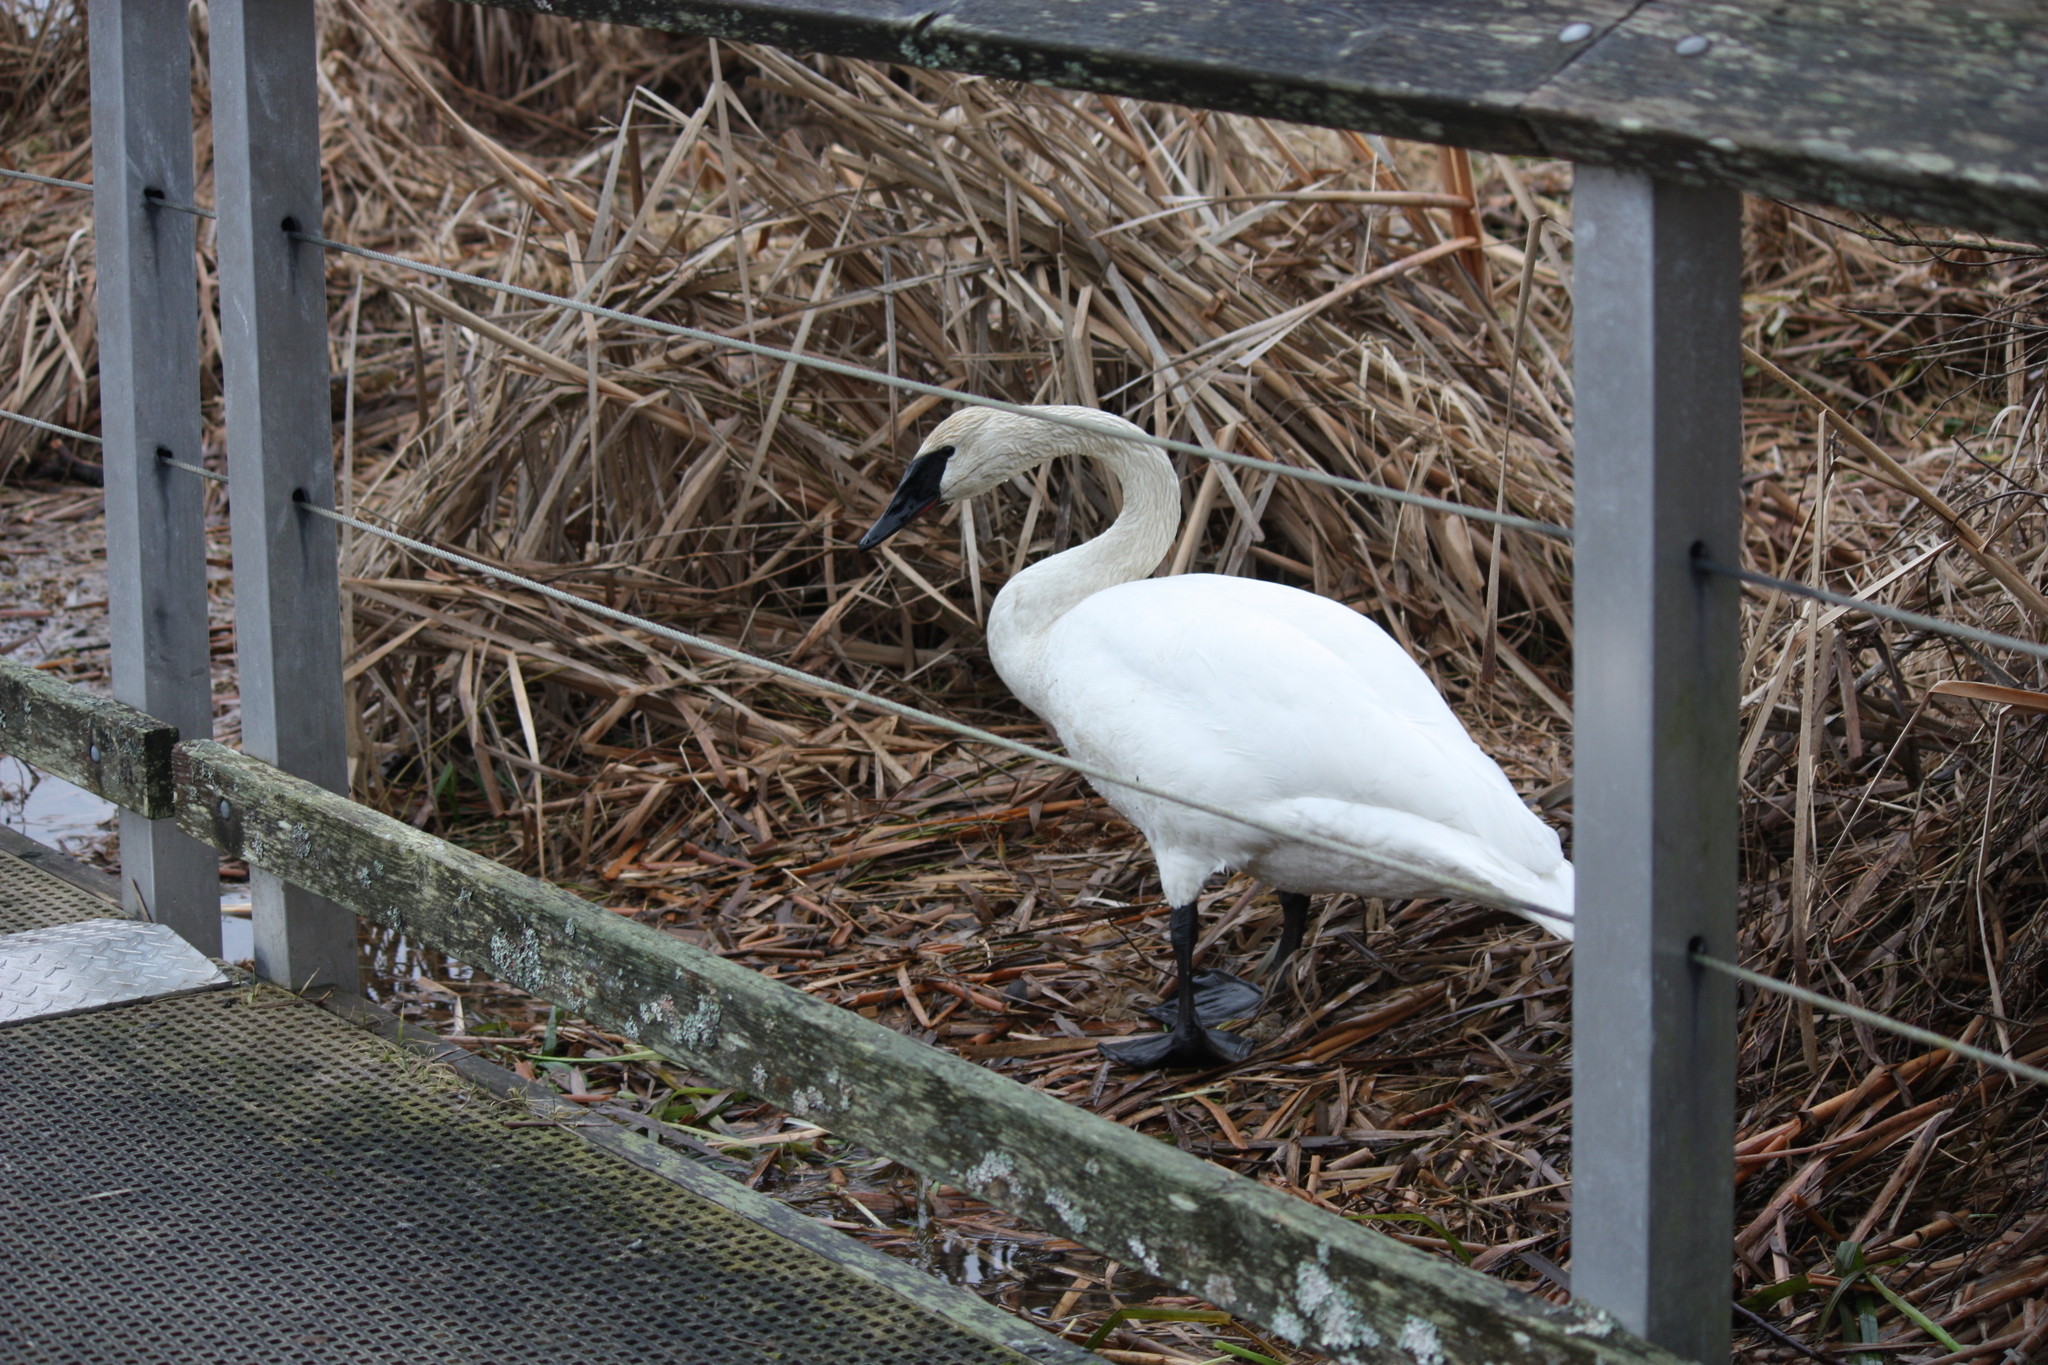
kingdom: Animalia
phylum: Chordata
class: Aves
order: Anseriformes
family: Anatidae
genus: Cygnus
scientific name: Cygnus buccinator
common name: Trumpeter swan
